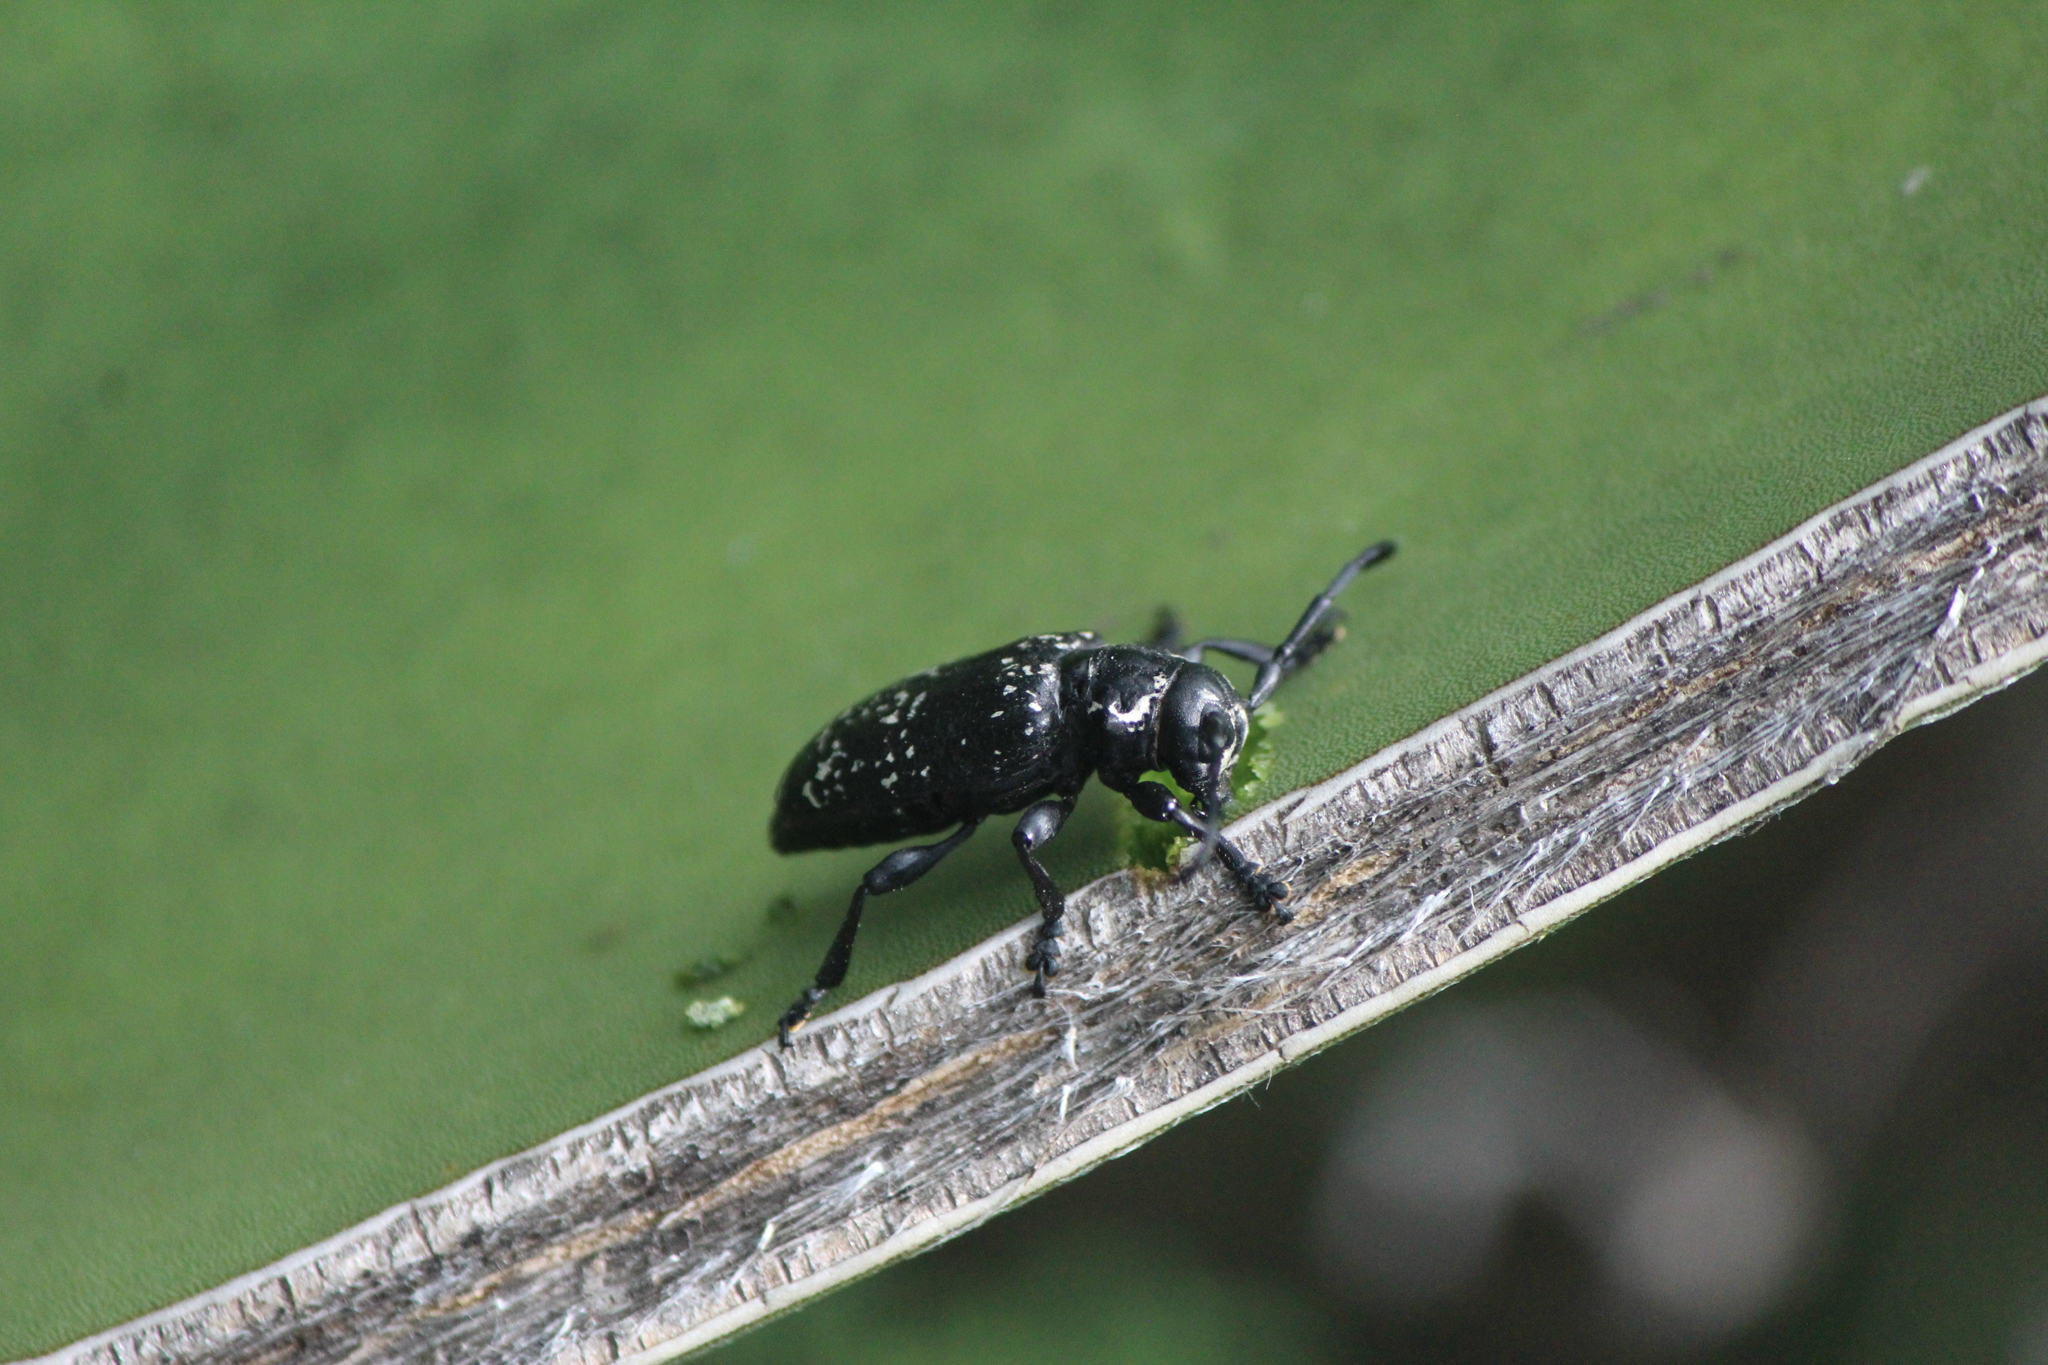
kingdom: Animalia
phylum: Arthropoda
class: Insecta
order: Coleoptera
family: Cerambycidae
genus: Acanthoderes
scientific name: Acanthoderes funeraria
